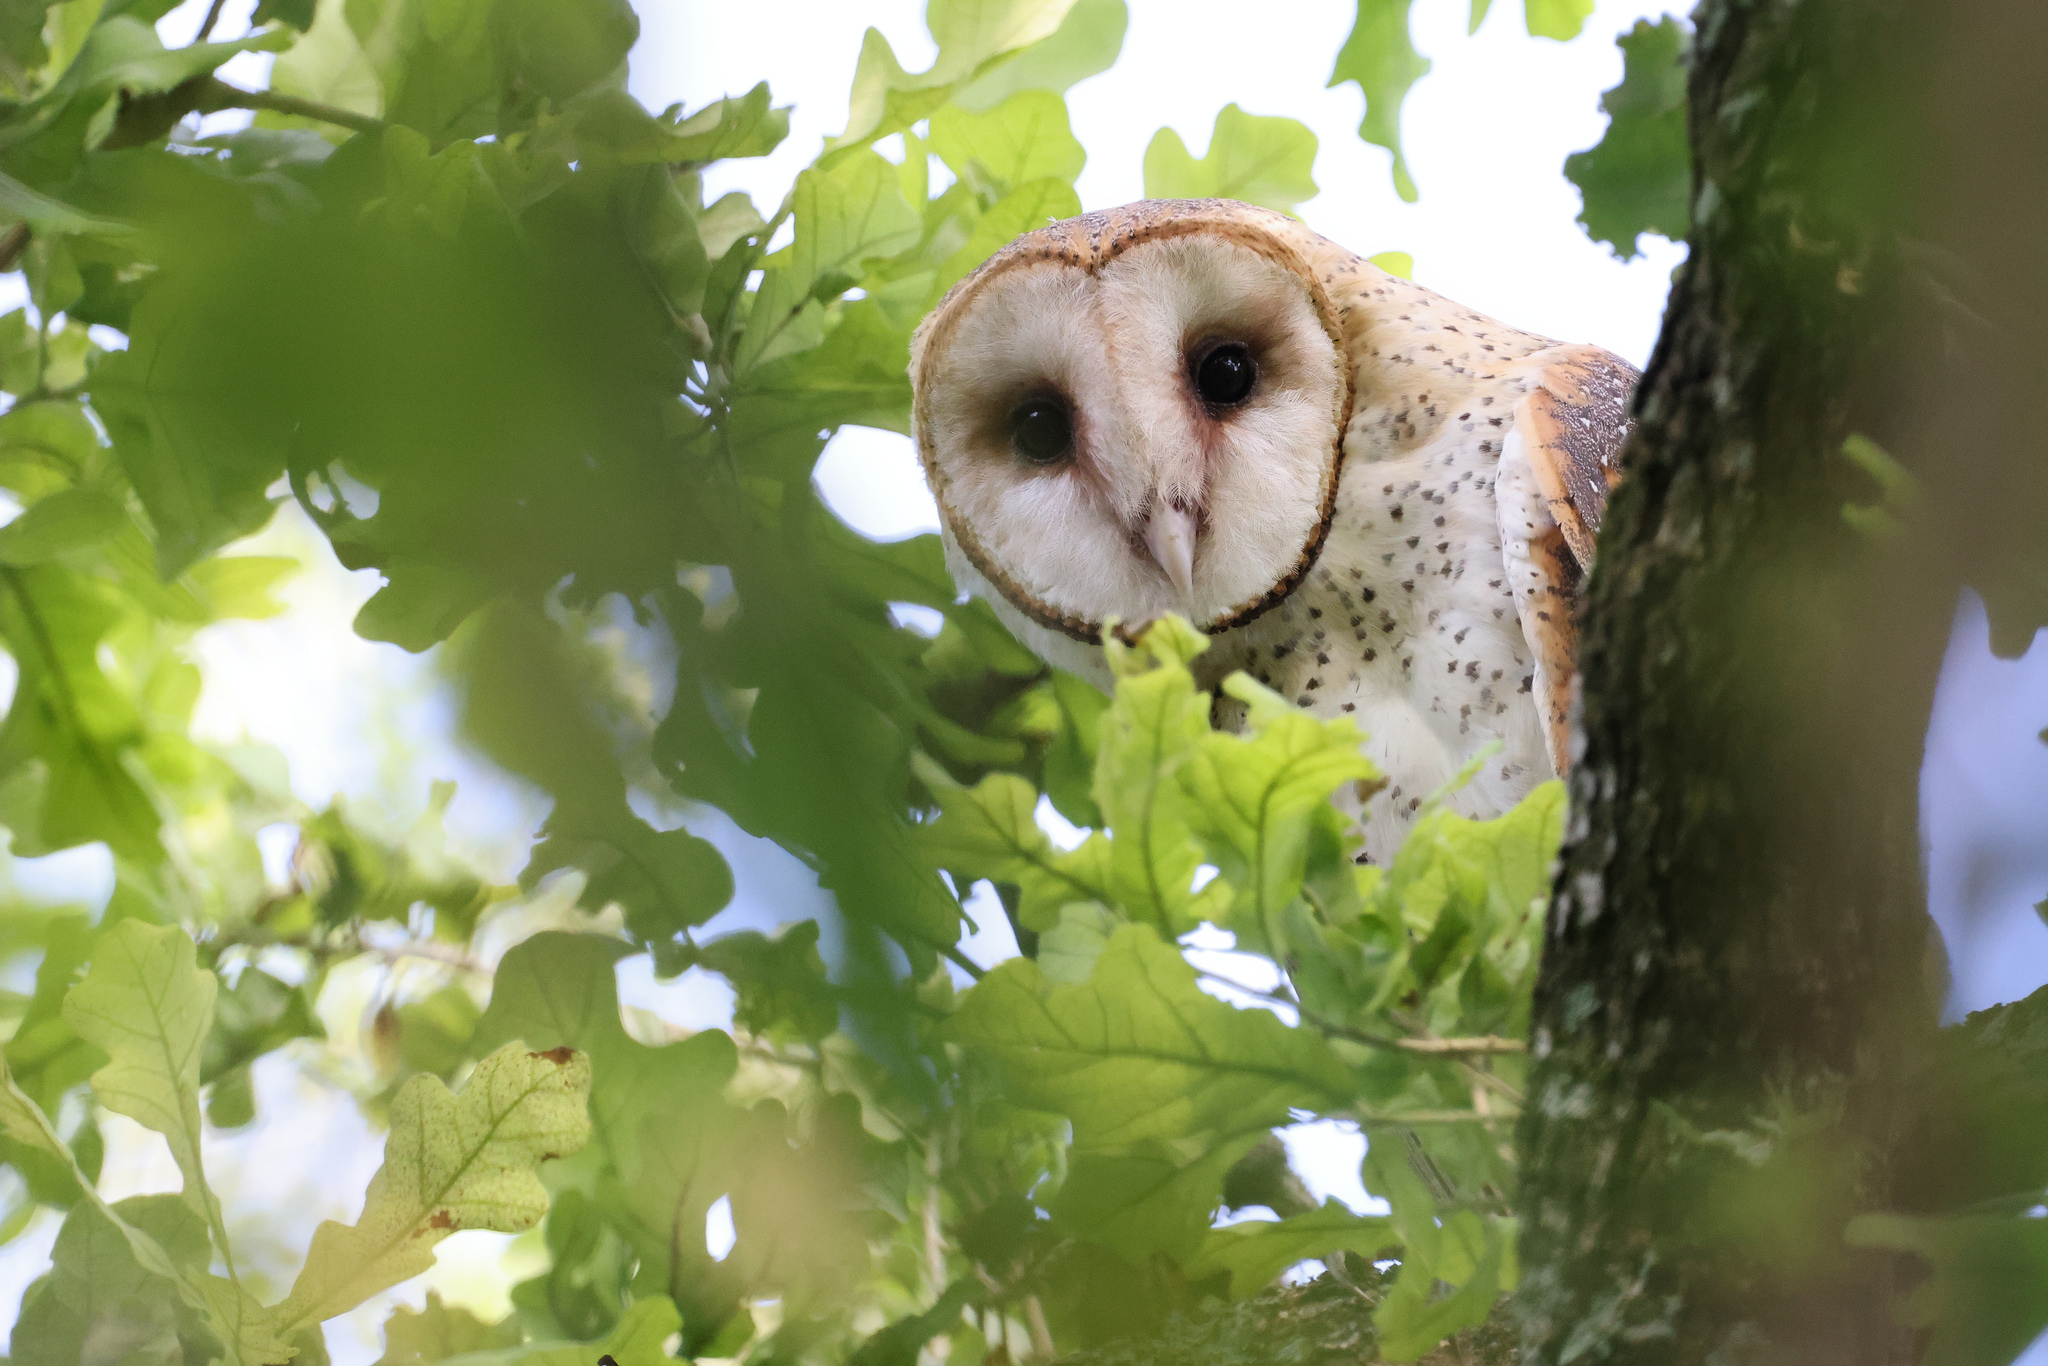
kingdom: Animalia
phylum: Chordata
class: Aves
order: Strigiformes
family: Tytonidae
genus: Tyto
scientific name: Tyto alba
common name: Barn owl
